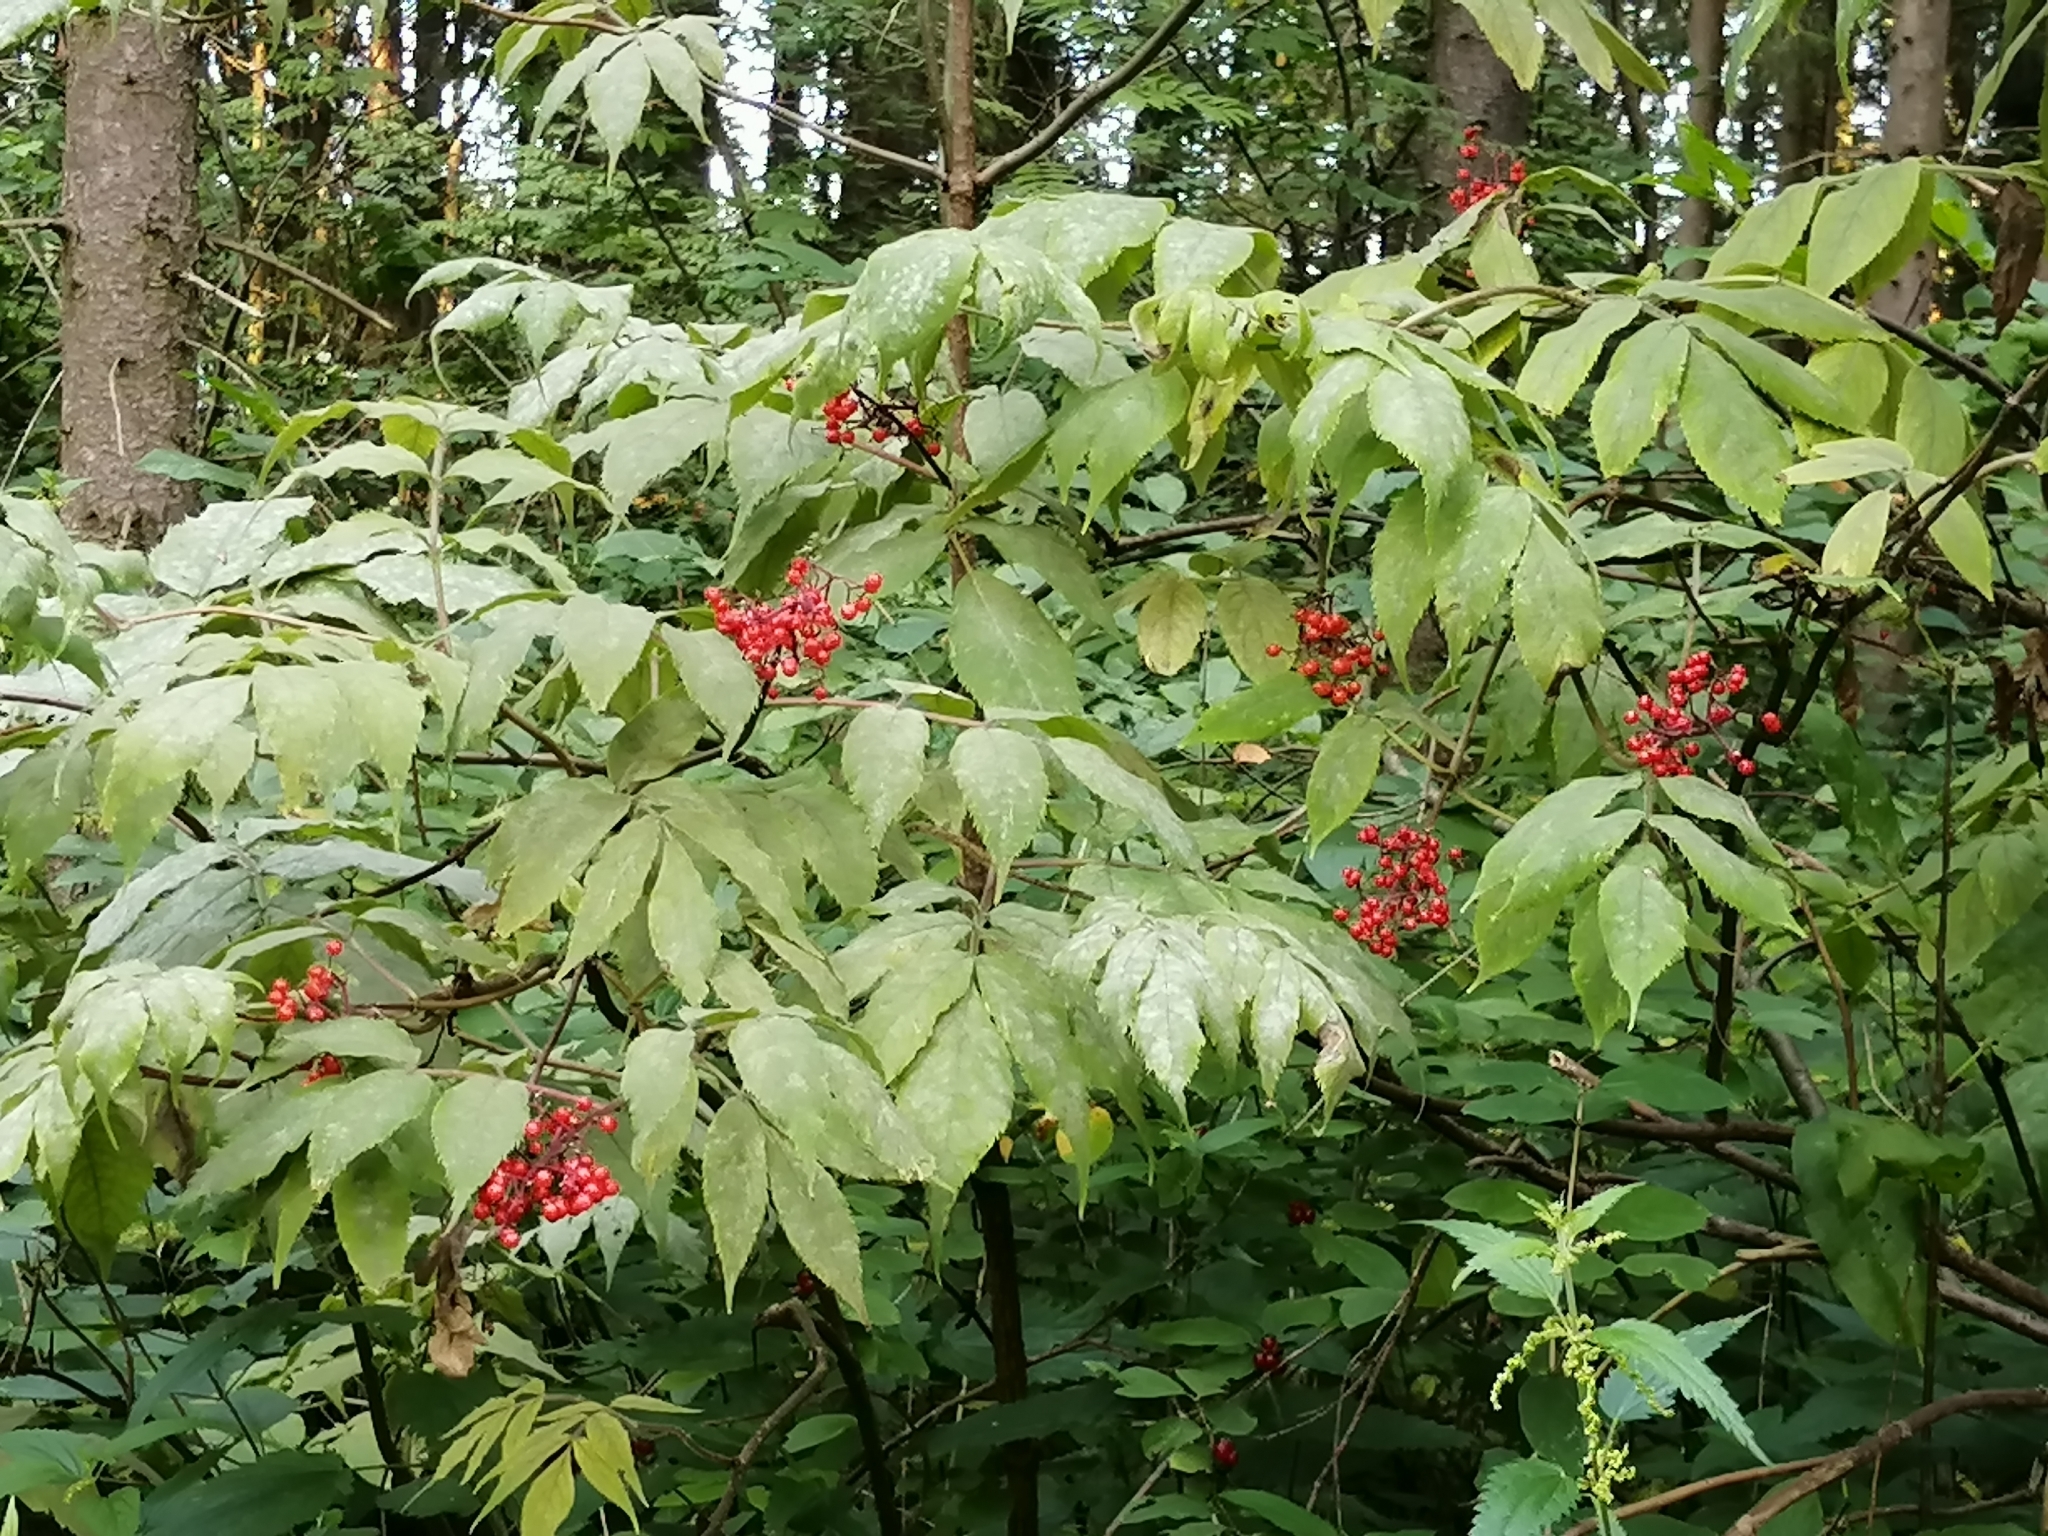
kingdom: Plantae
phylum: Tracheophyta
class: Magnoliopsida
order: Dipsacales
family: Viburnaceae
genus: Sambucus
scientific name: Sambucus racemosa
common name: Red-berried elder
